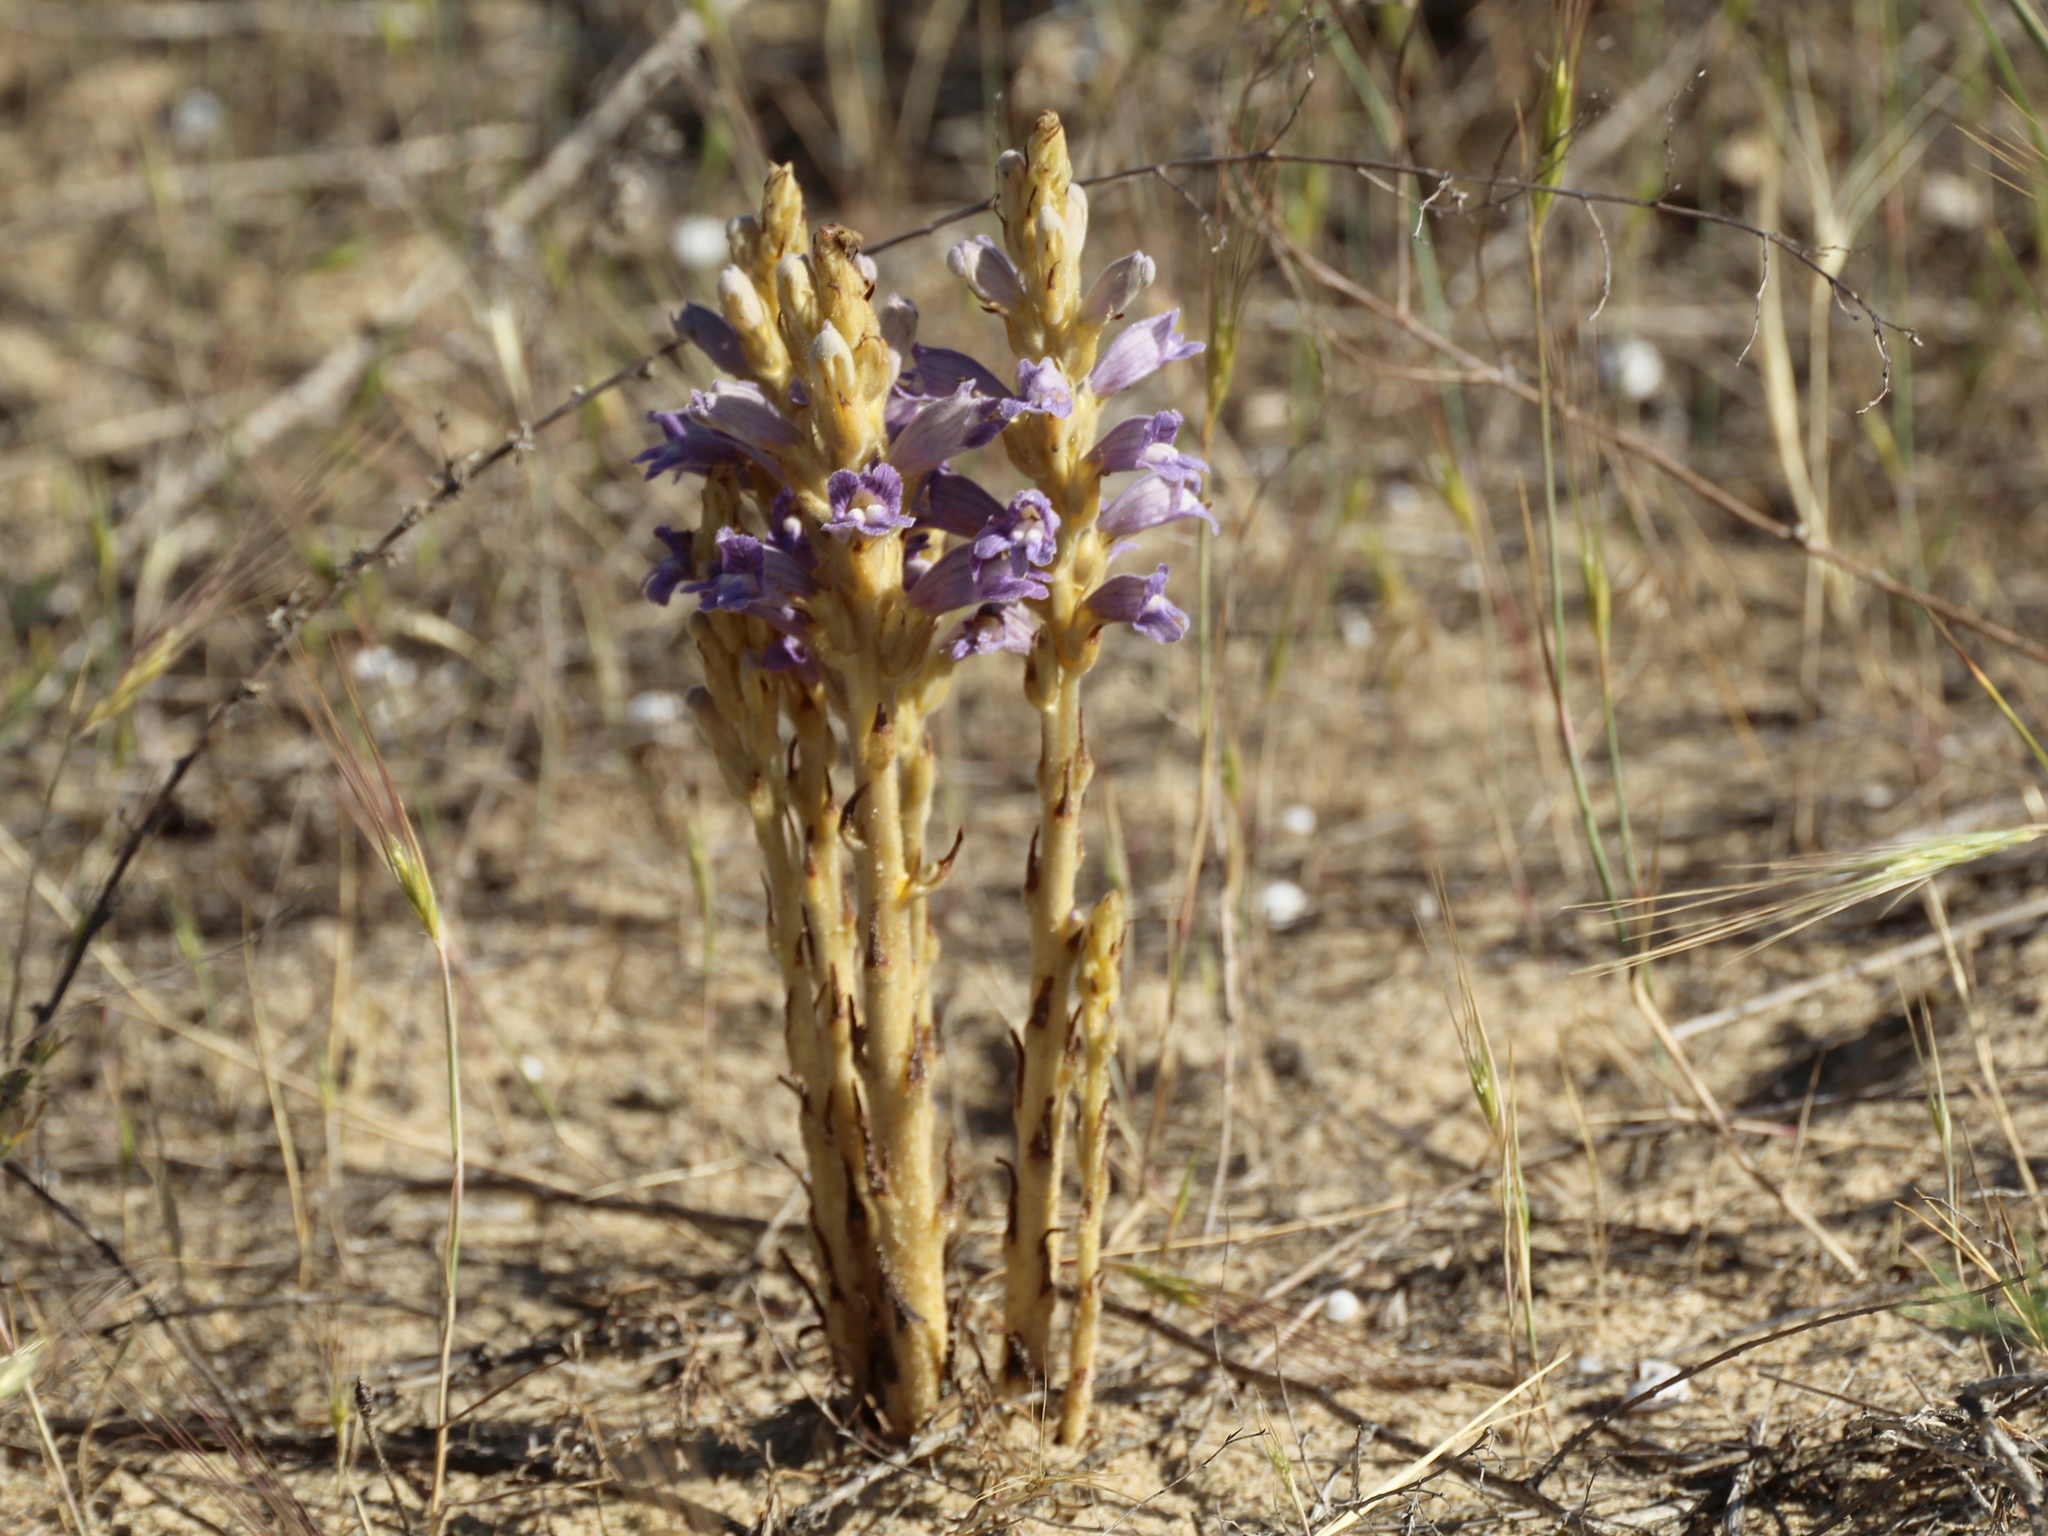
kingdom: Plantae
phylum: Tracheophyta
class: Magnoliopsida
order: Lamiales
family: Orobanchaceae
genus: Phelipanche
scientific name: Phelipanche arenaria
